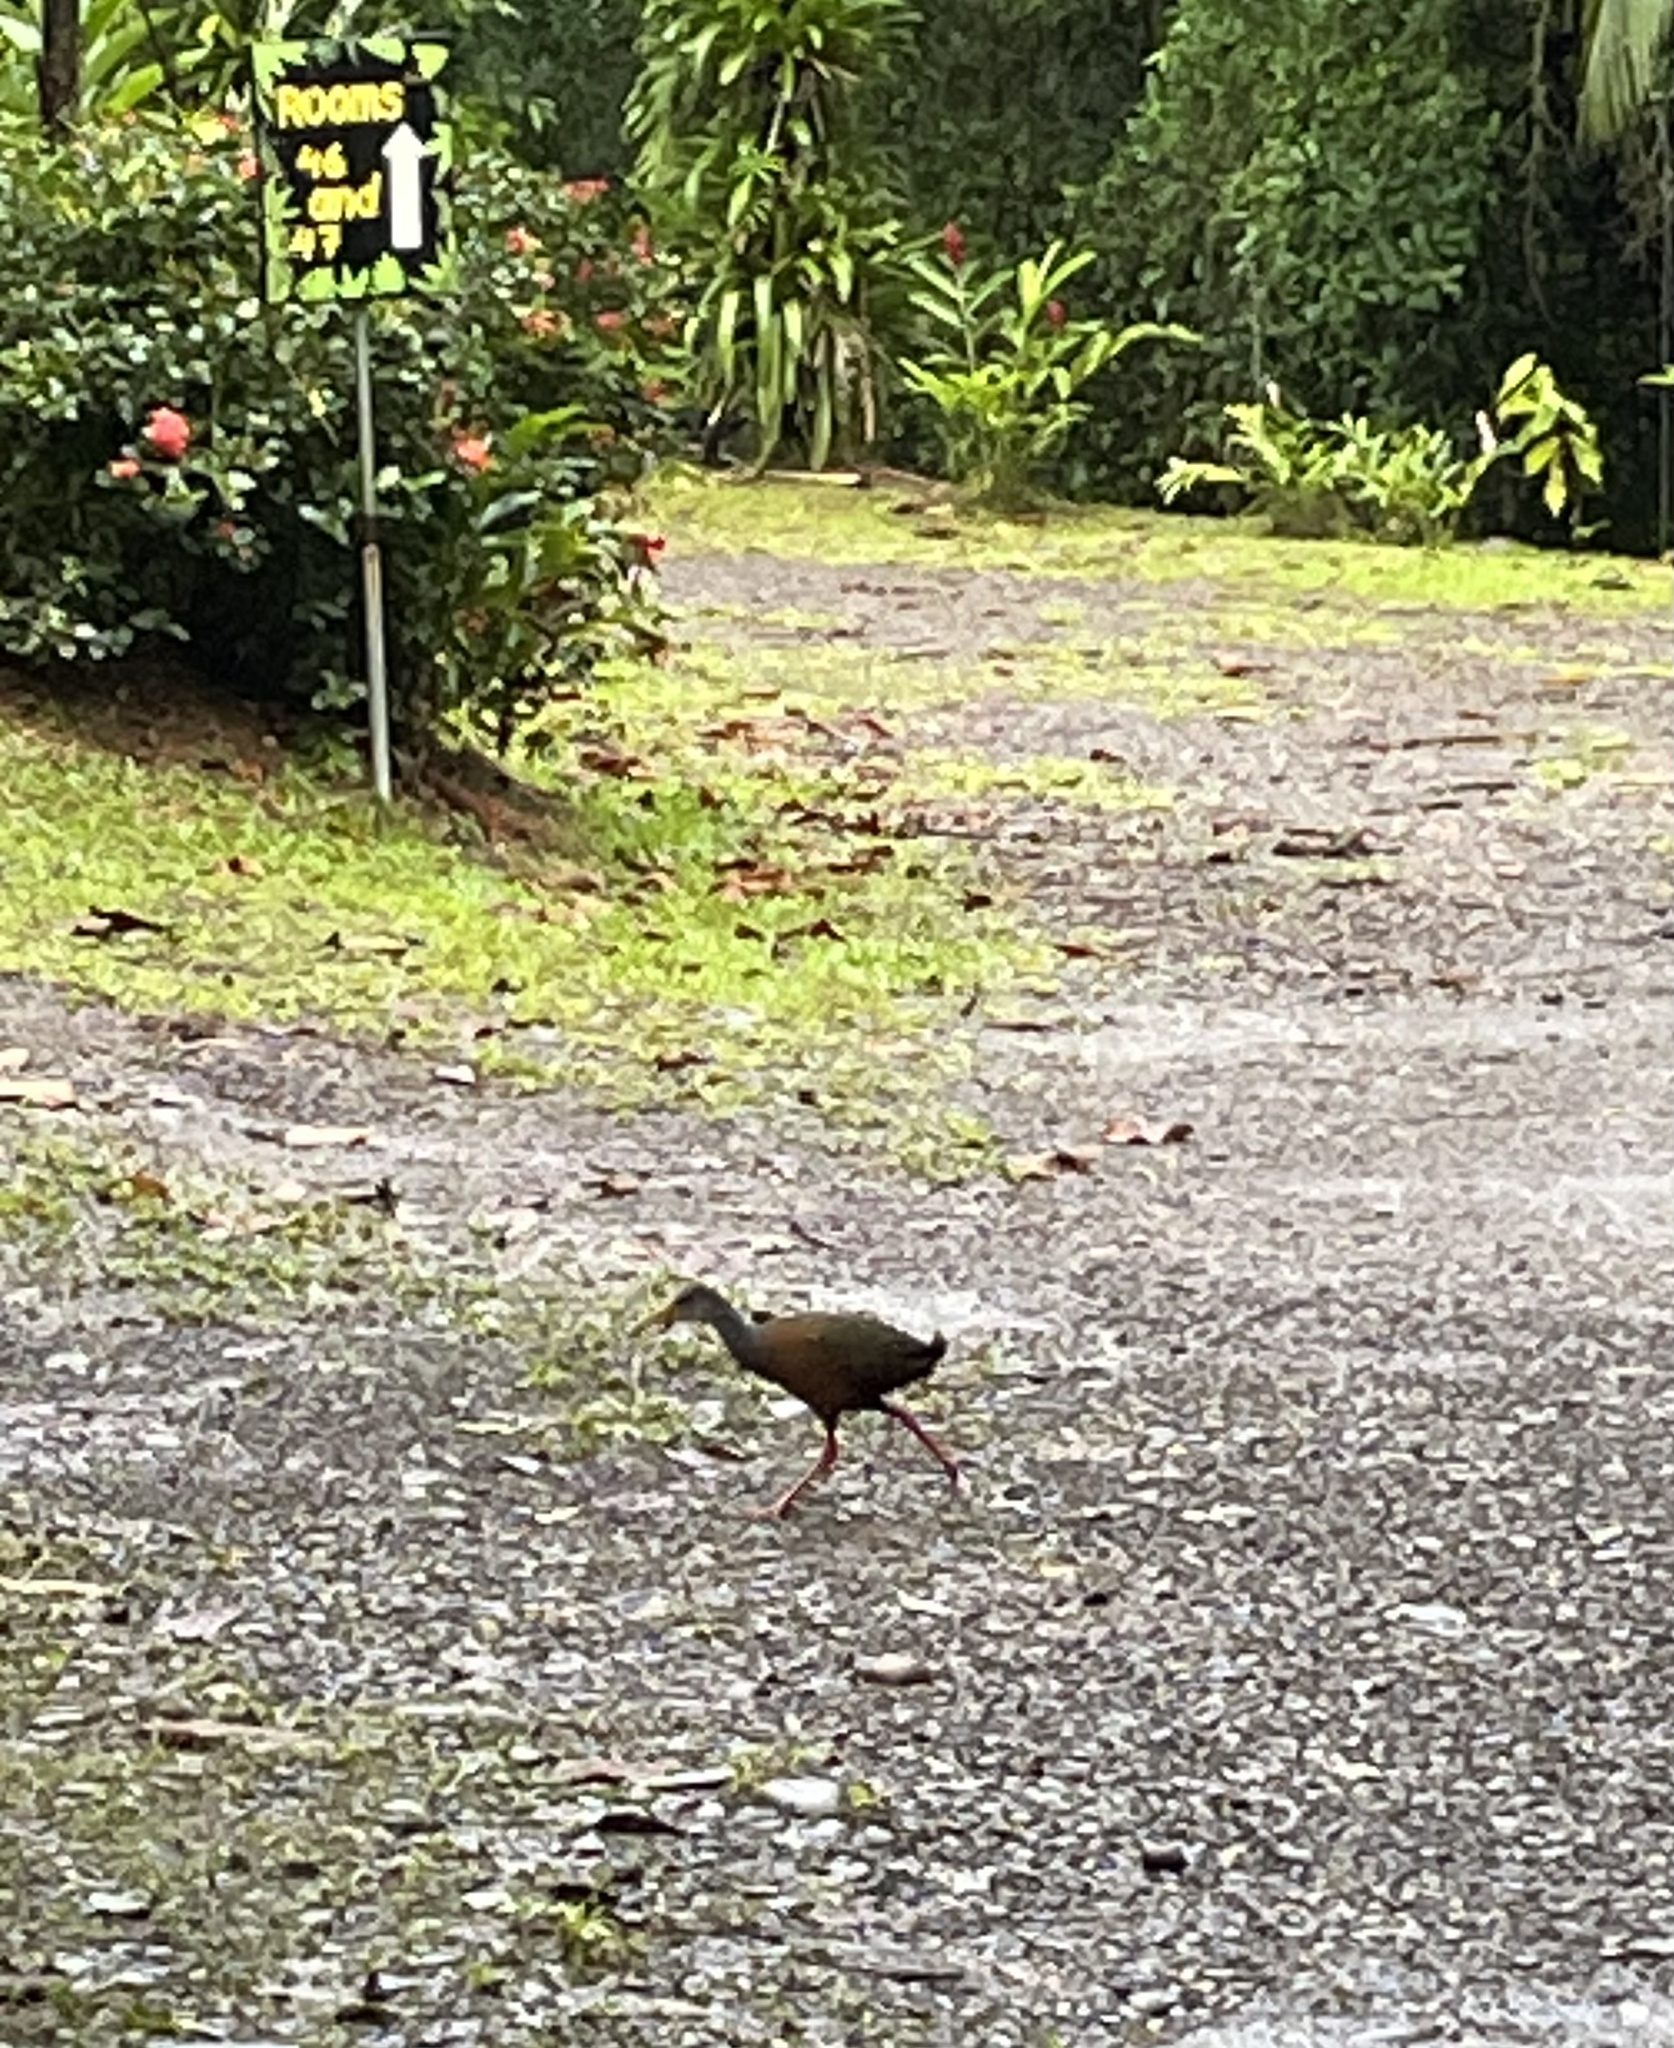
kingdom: Animalia
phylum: Chordata
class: Aves
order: Gruiformes
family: Rallidae
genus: Aramides
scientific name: Aramides albiventris
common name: Russet-naped wood-rail
